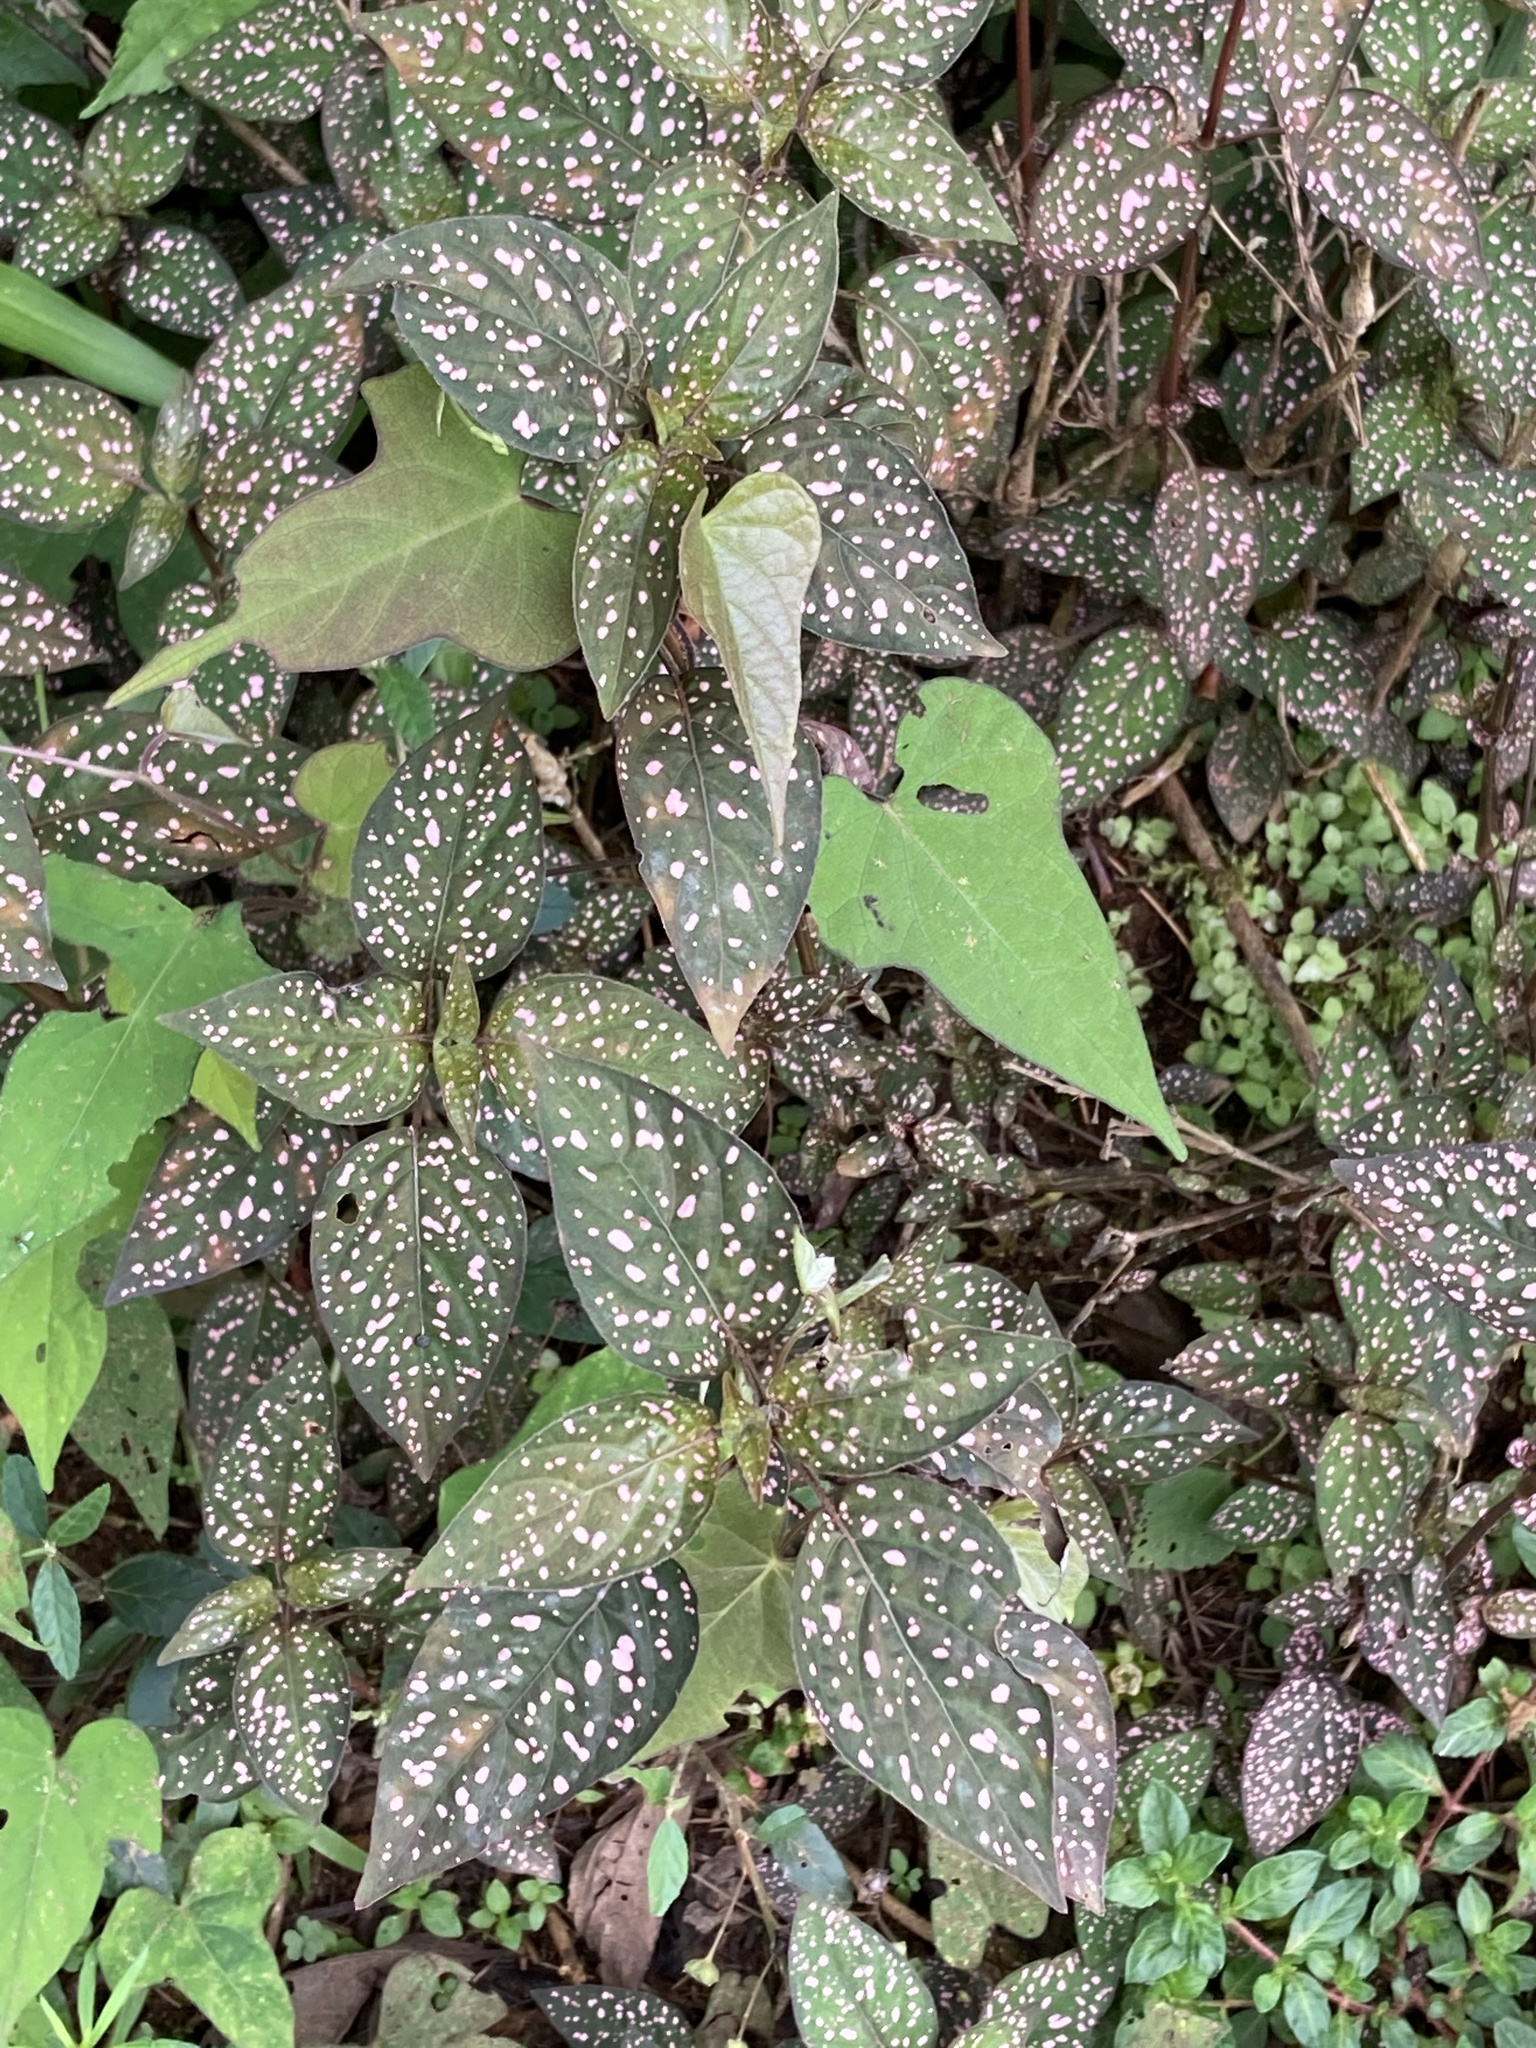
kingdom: Plantae
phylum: Tracheophyta
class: Magnoliopsida
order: Lamiales
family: Acanthaceae
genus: Hypoestes
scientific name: Hypoestes phyllostachya
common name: Polkadot-plant
